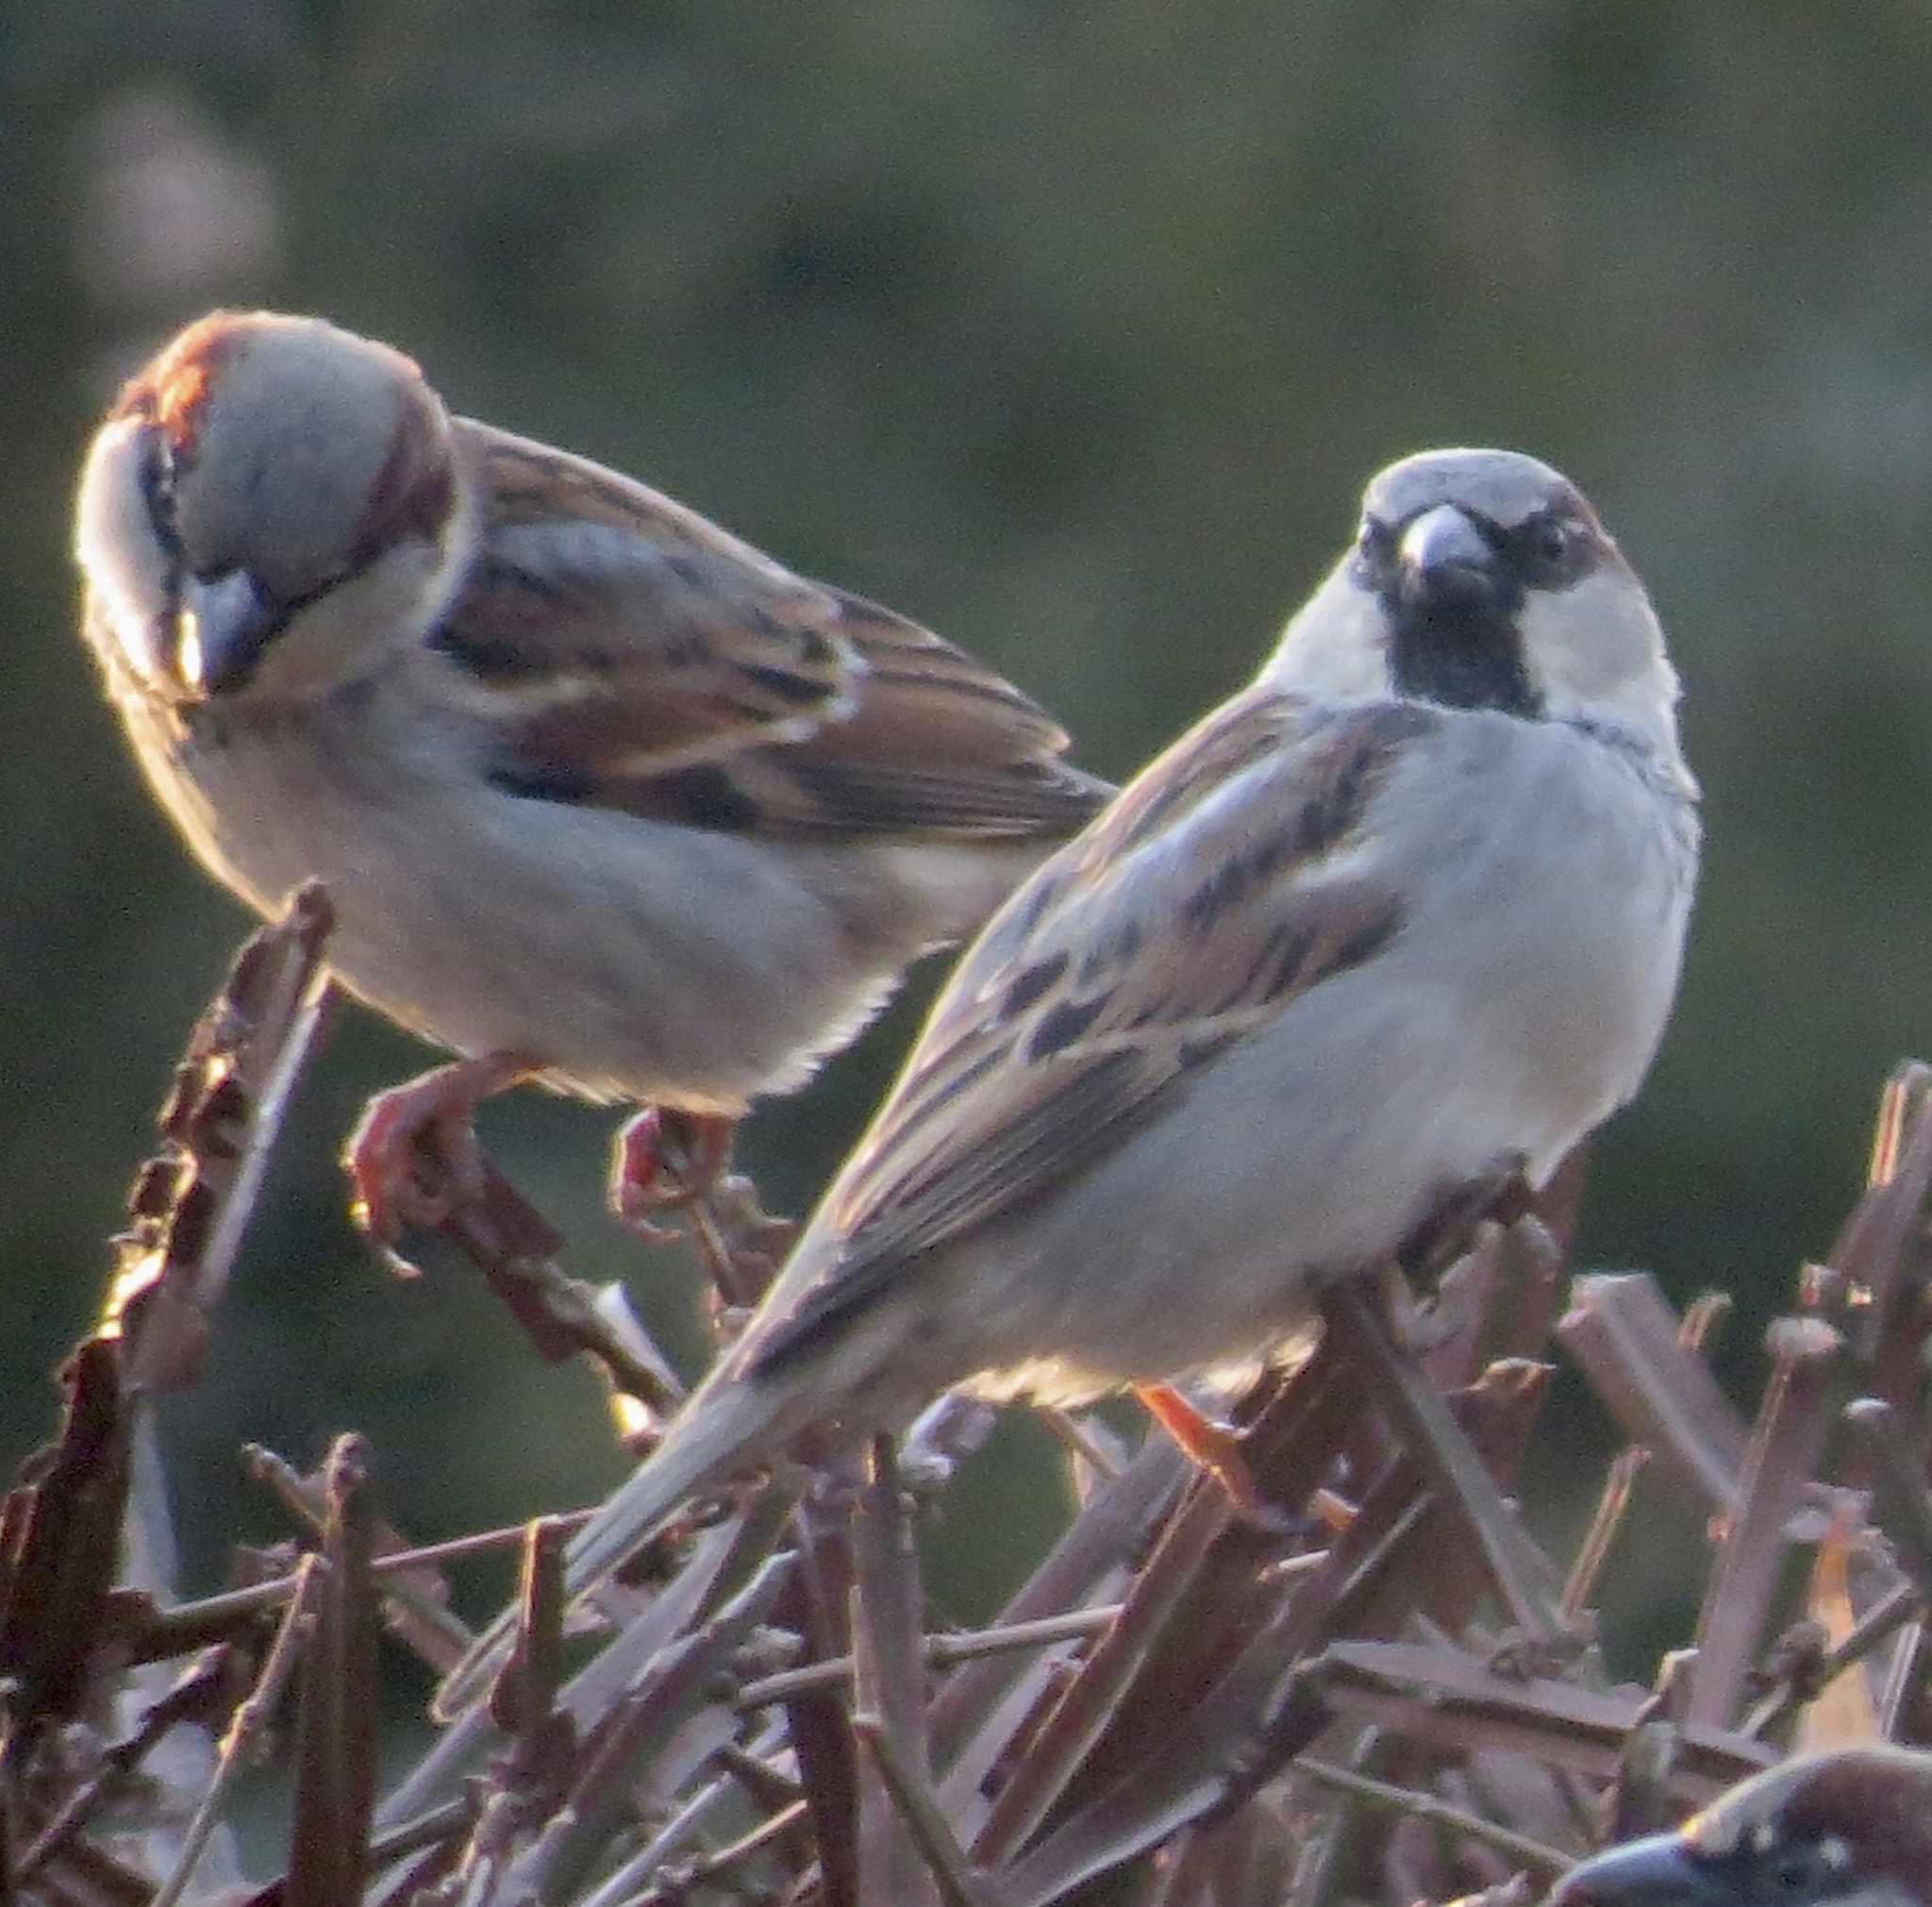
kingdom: Animalia
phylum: Chordata
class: Aves
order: Passeriformes
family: Passeridae
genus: Passer
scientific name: Passer domesticus
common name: House sparrow
